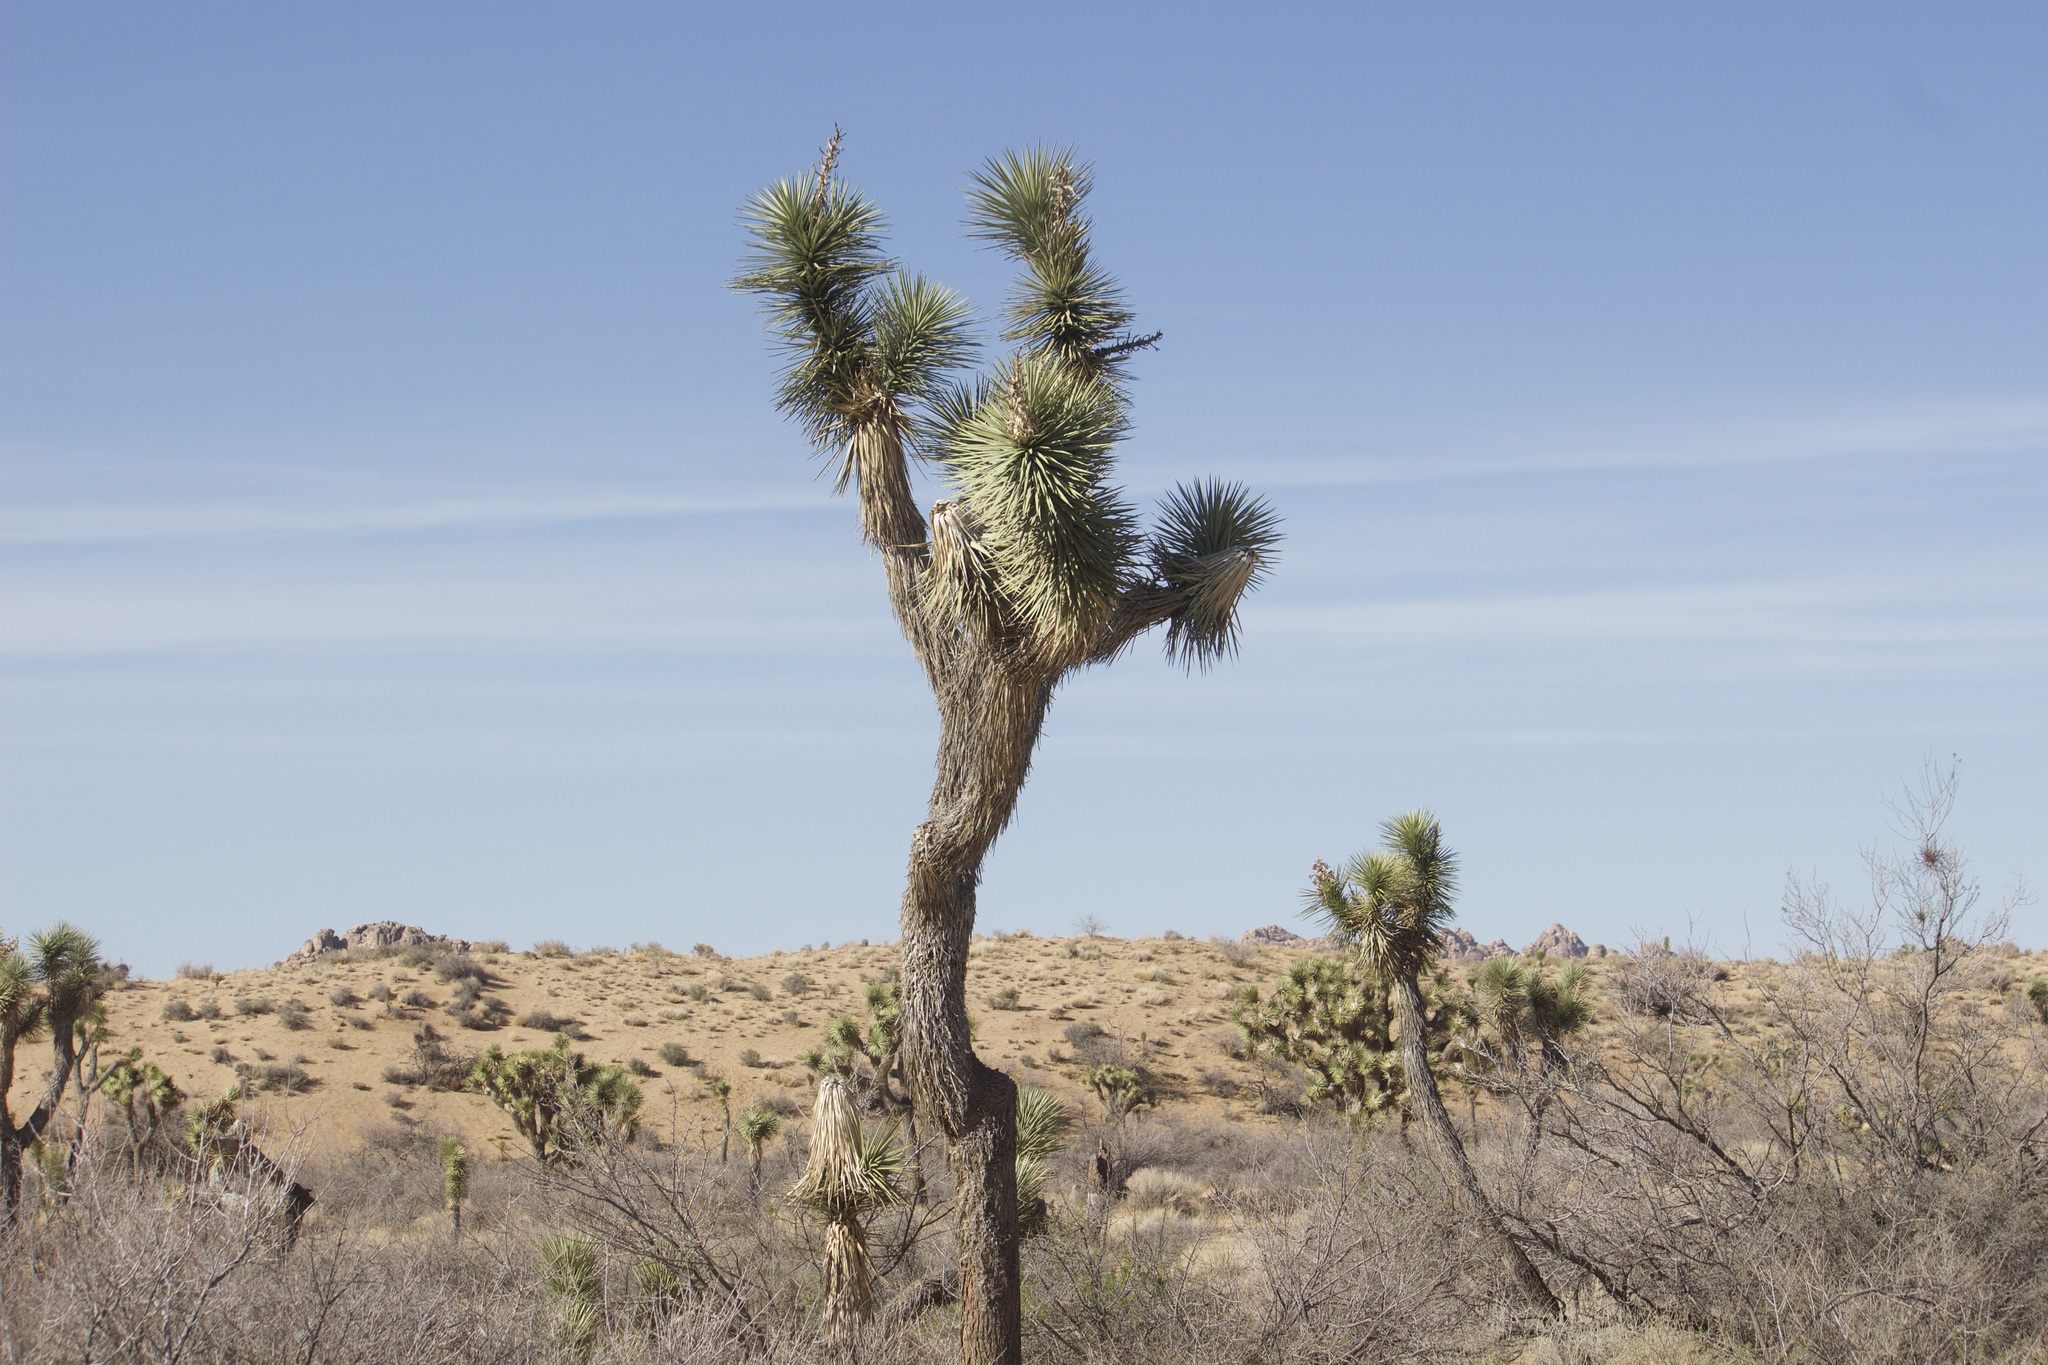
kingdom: Plantae
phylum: Tracheophyta
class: Liliopsida
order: Asparagales
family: Asparagaceae
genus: Yucca
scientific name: Yucca brevifolia
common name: Joshua tree
